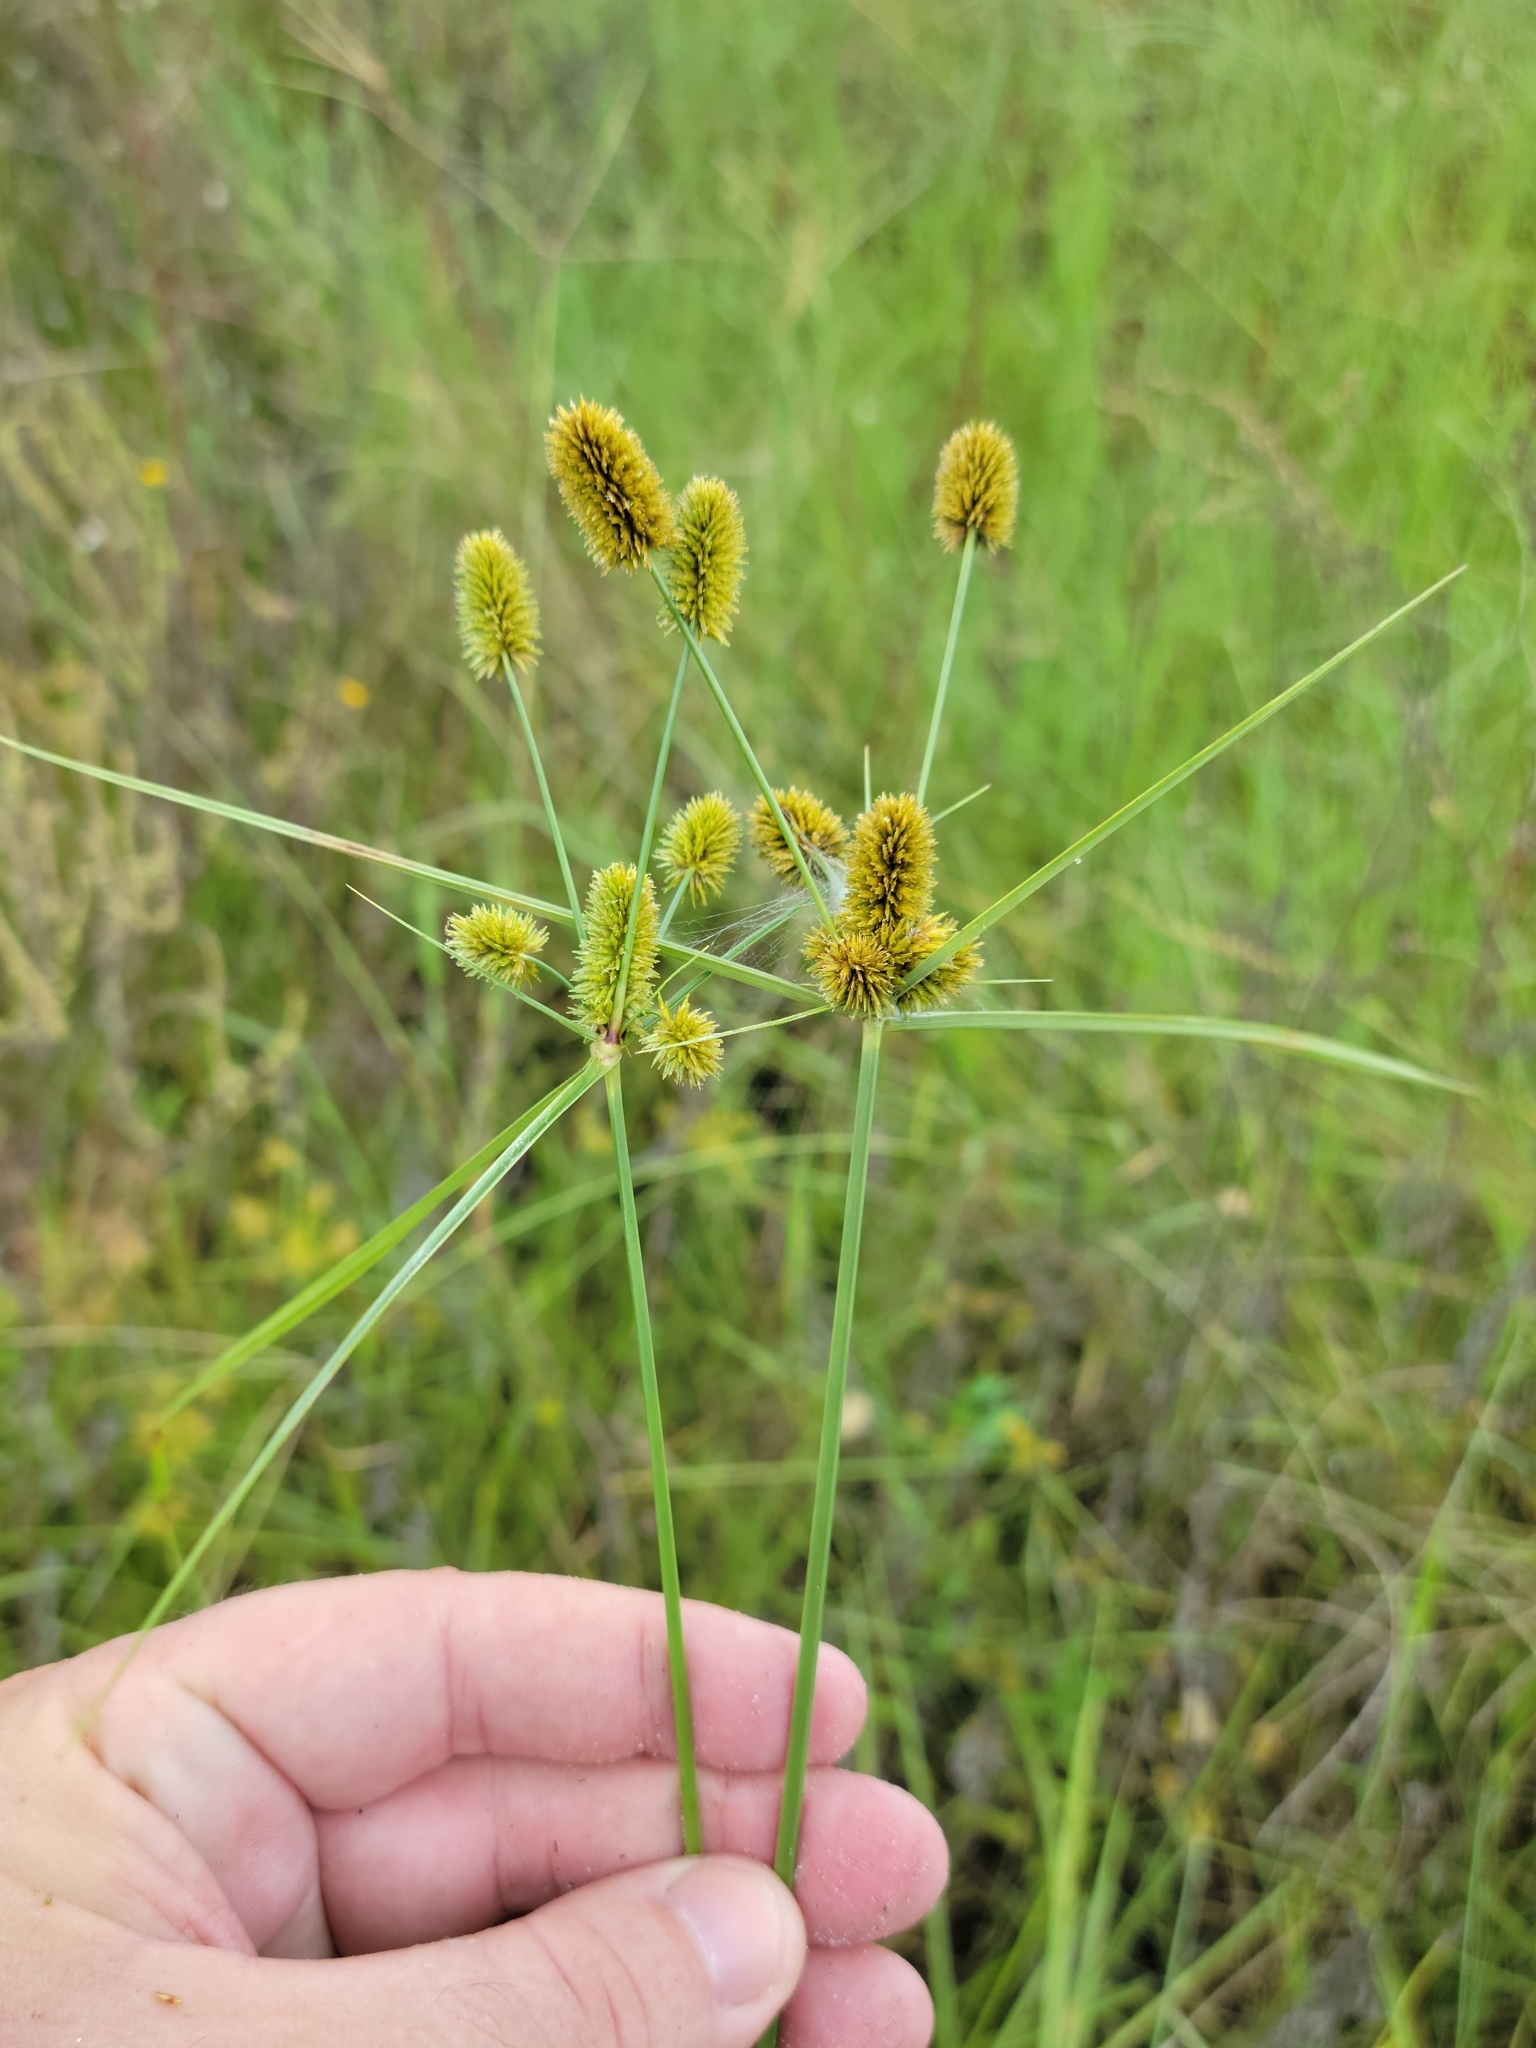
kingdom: Plantae
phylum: Tracheophyta
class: Liliopsida
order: Poales
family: Cyperaceae
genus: Cyperus
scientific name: Cyperus ovatus
